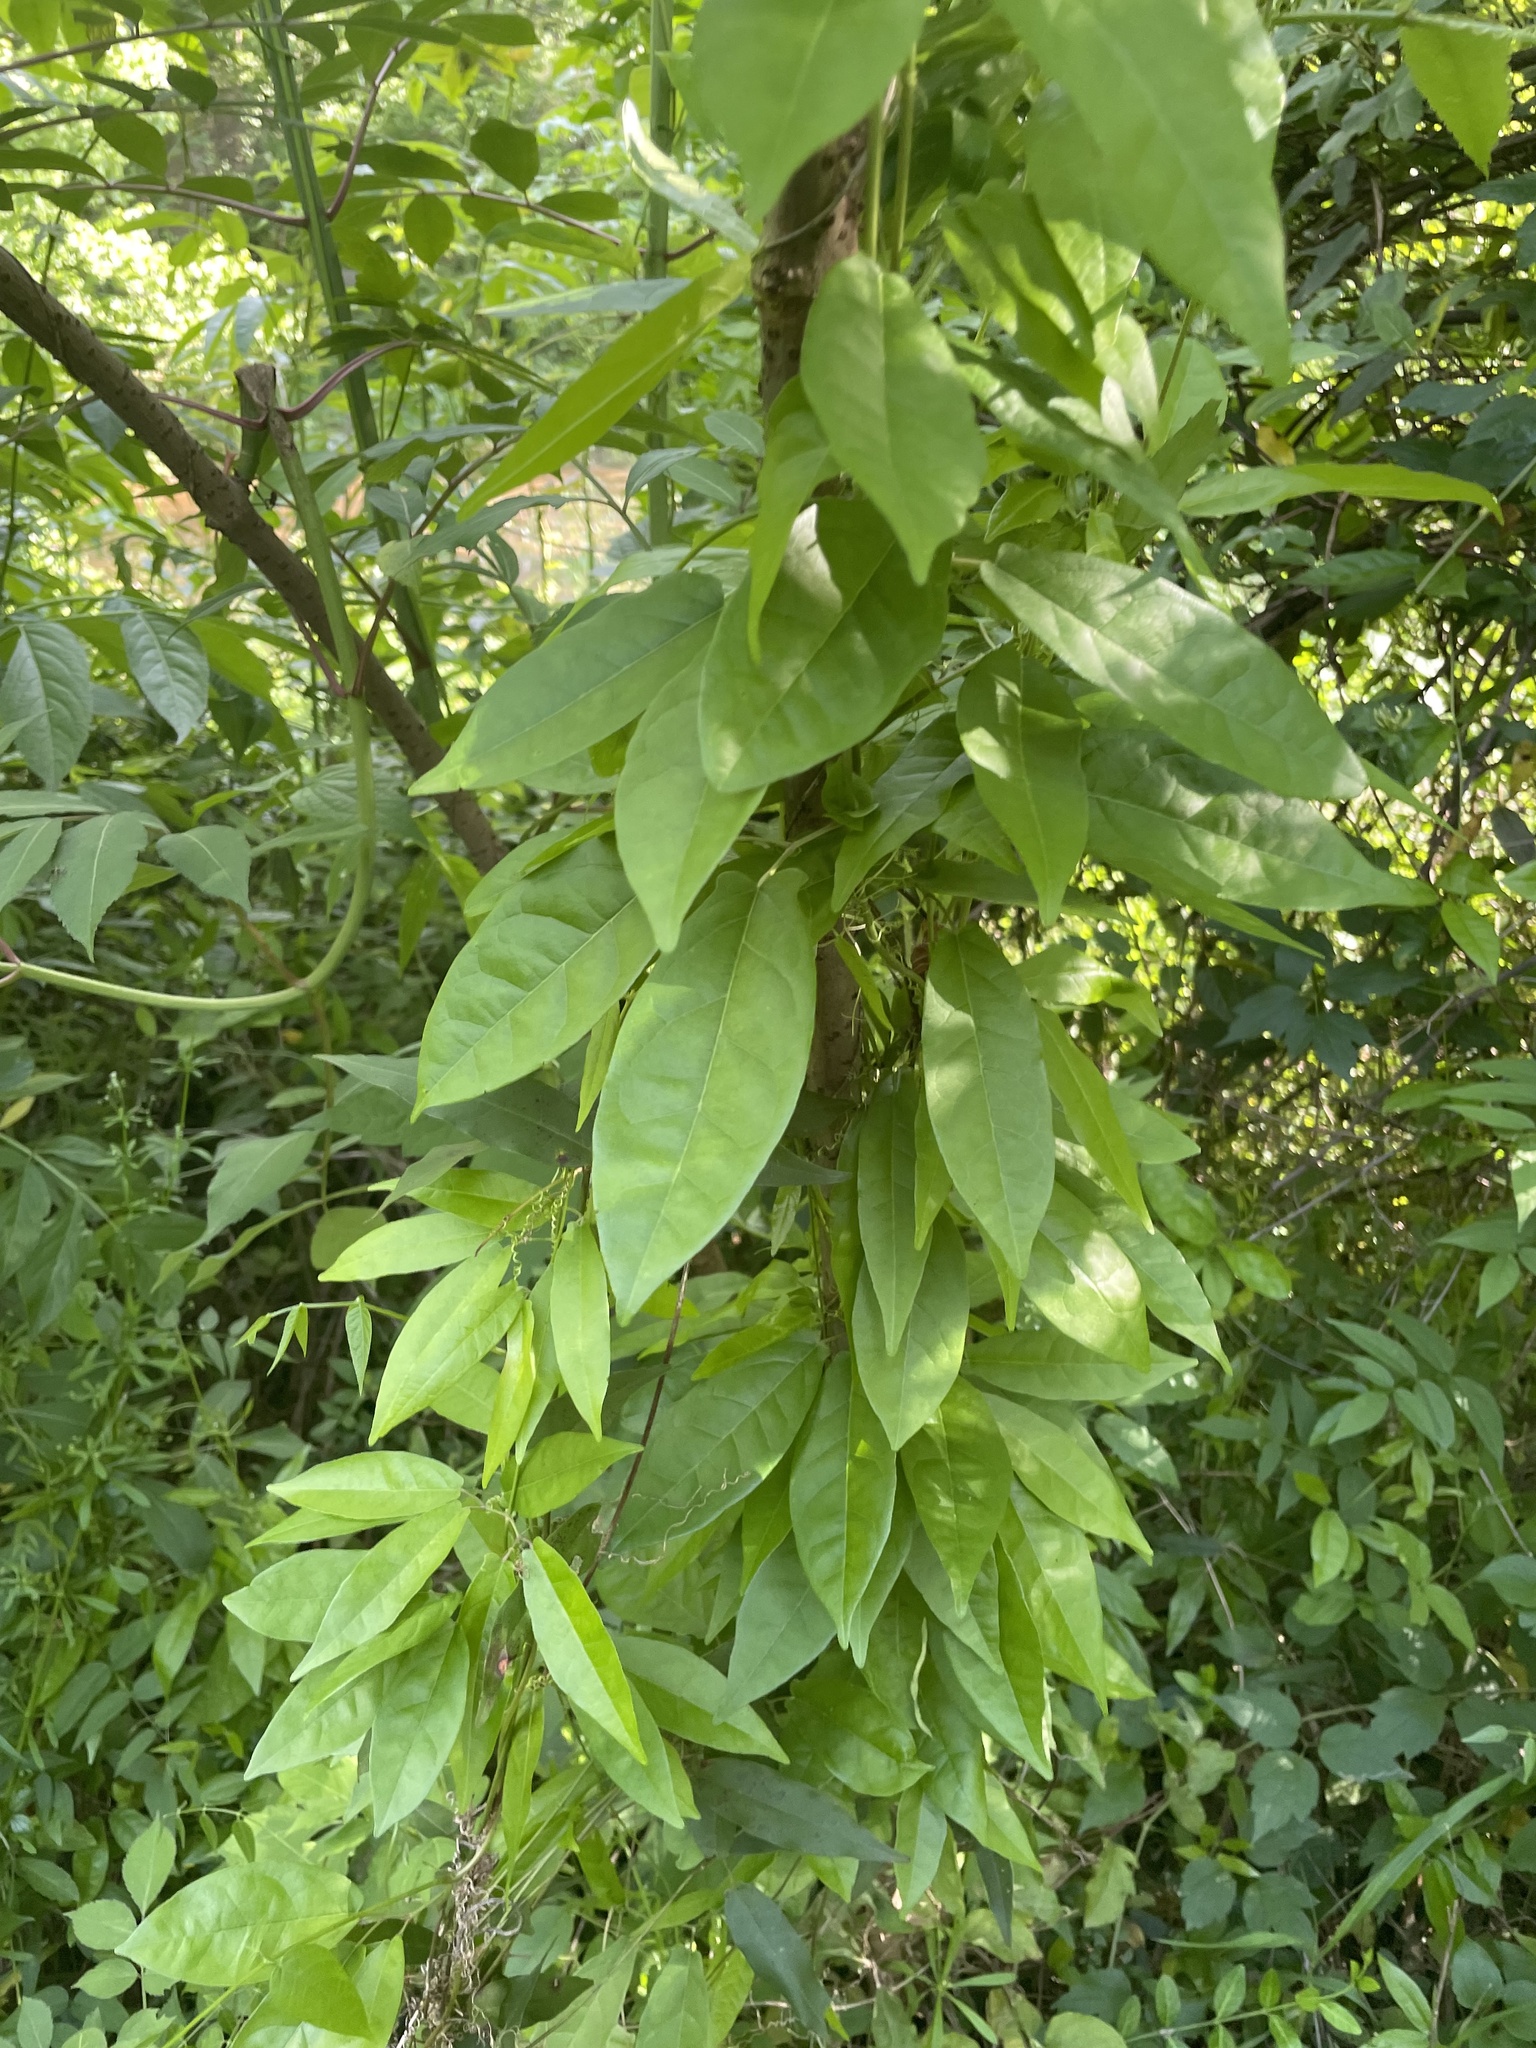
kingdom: Plantae
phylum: Tracheophyta
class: Magnoliopsida
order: Lamiales
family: Bignoniaceae
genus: Bignonia
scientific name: Bignonia capreolata
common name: Crossvine
